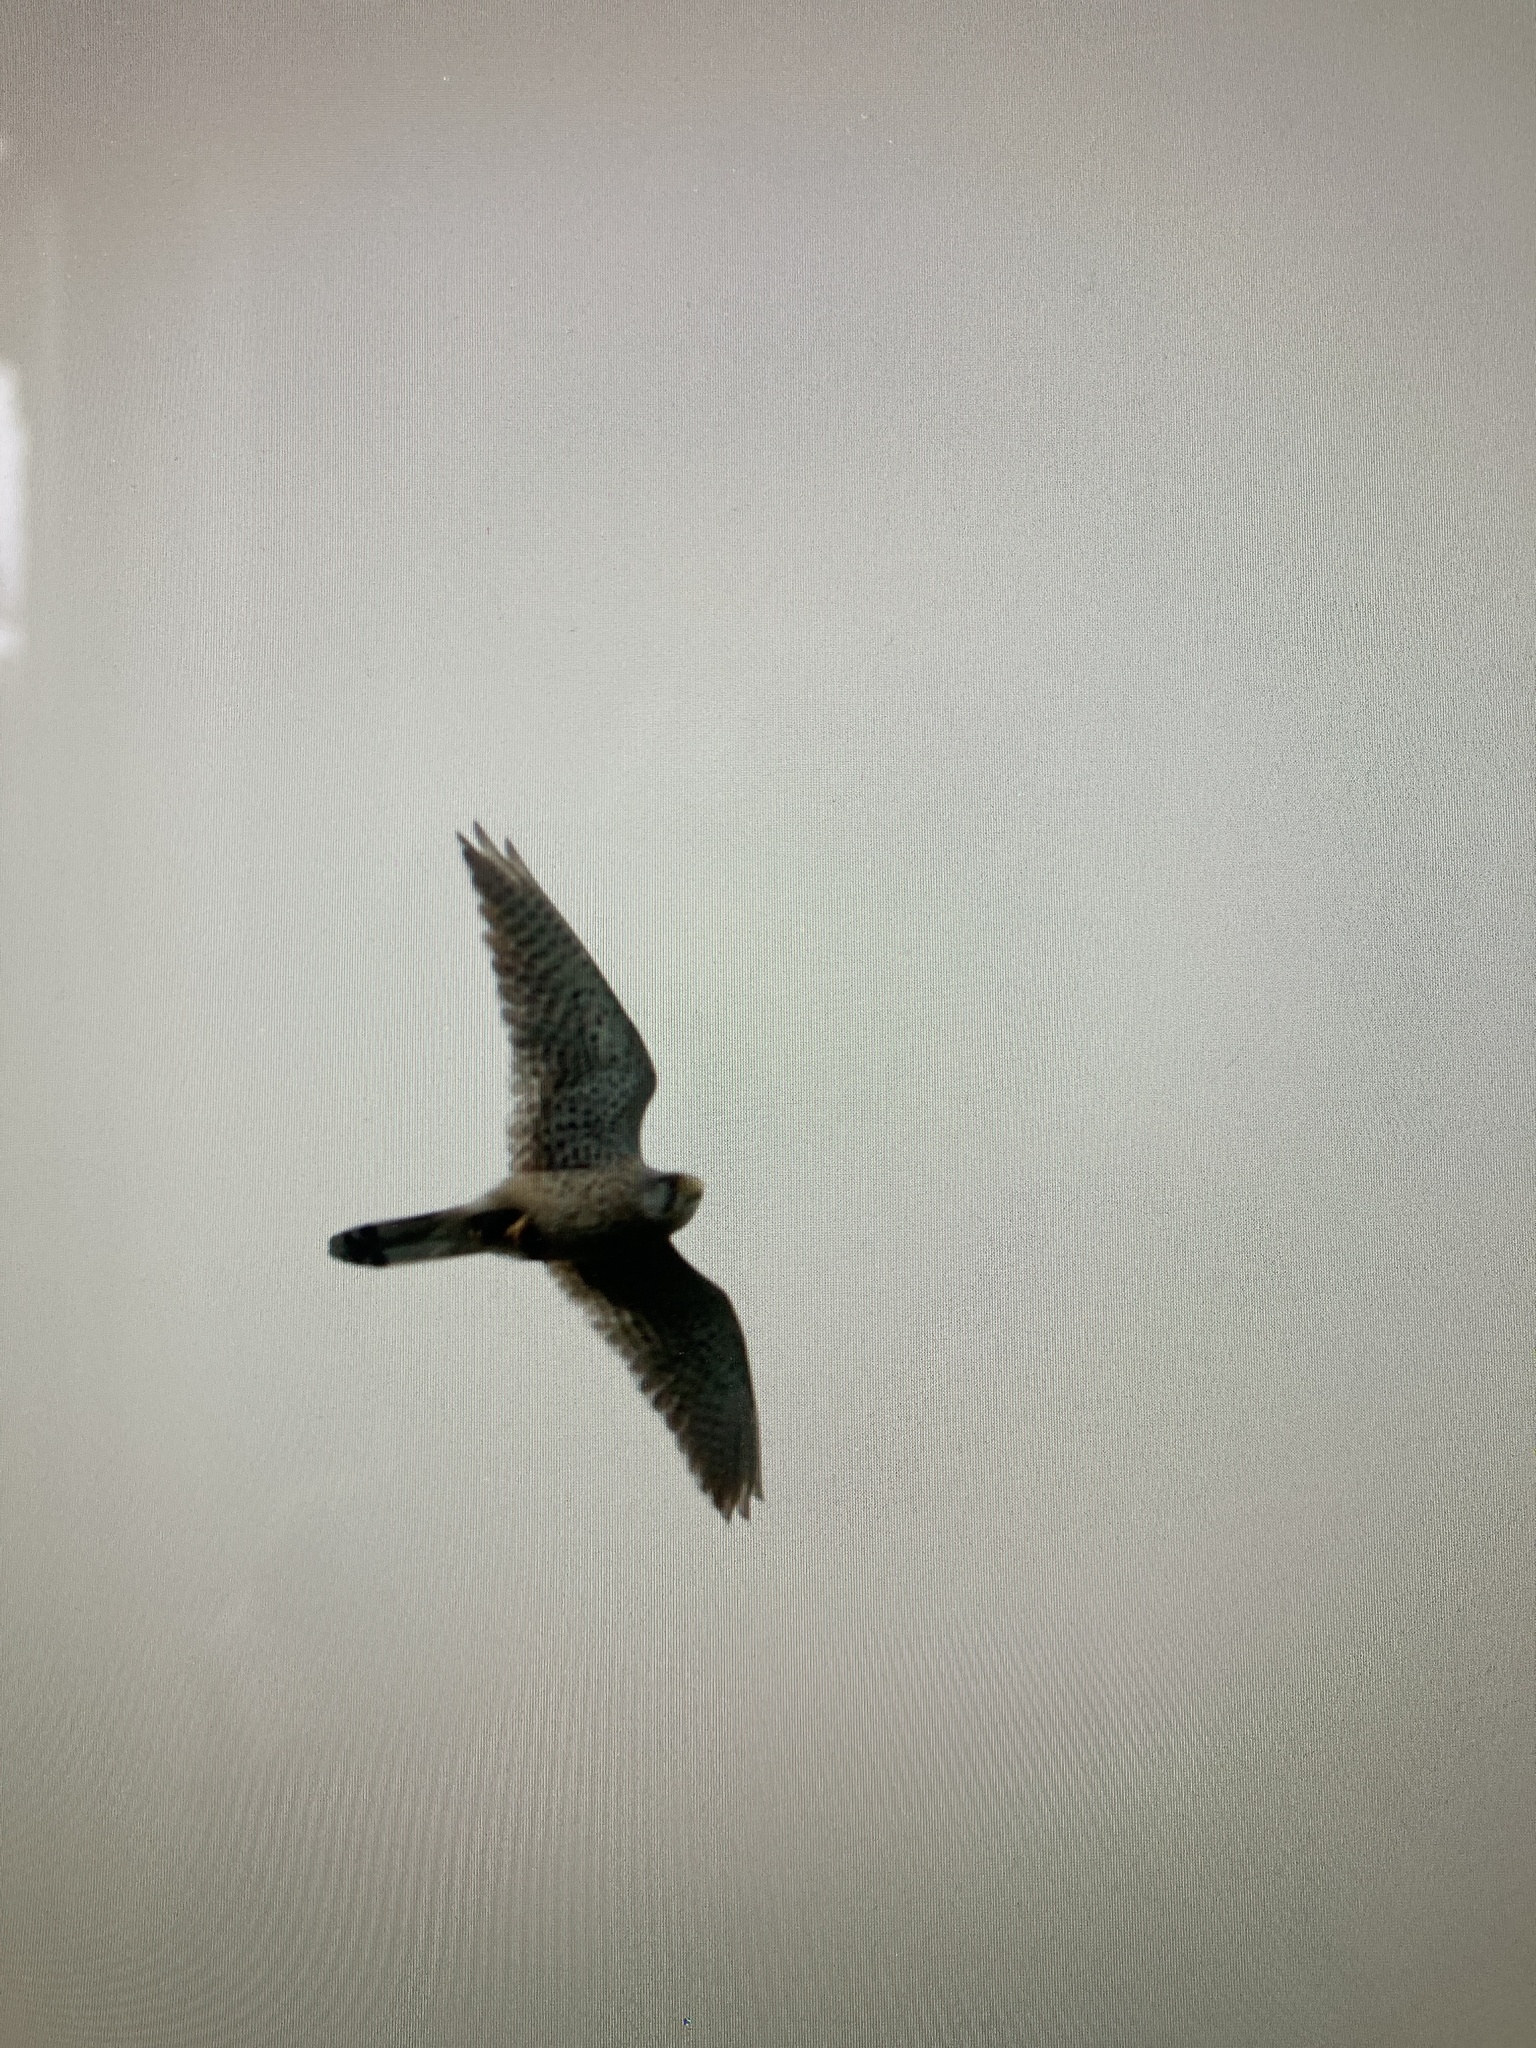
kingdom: Animalia
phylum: Chordata
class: Aves
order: Falconiformes
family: Falconidae
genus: Falco
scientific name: Falco tinnunculus
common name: Common kestrel
